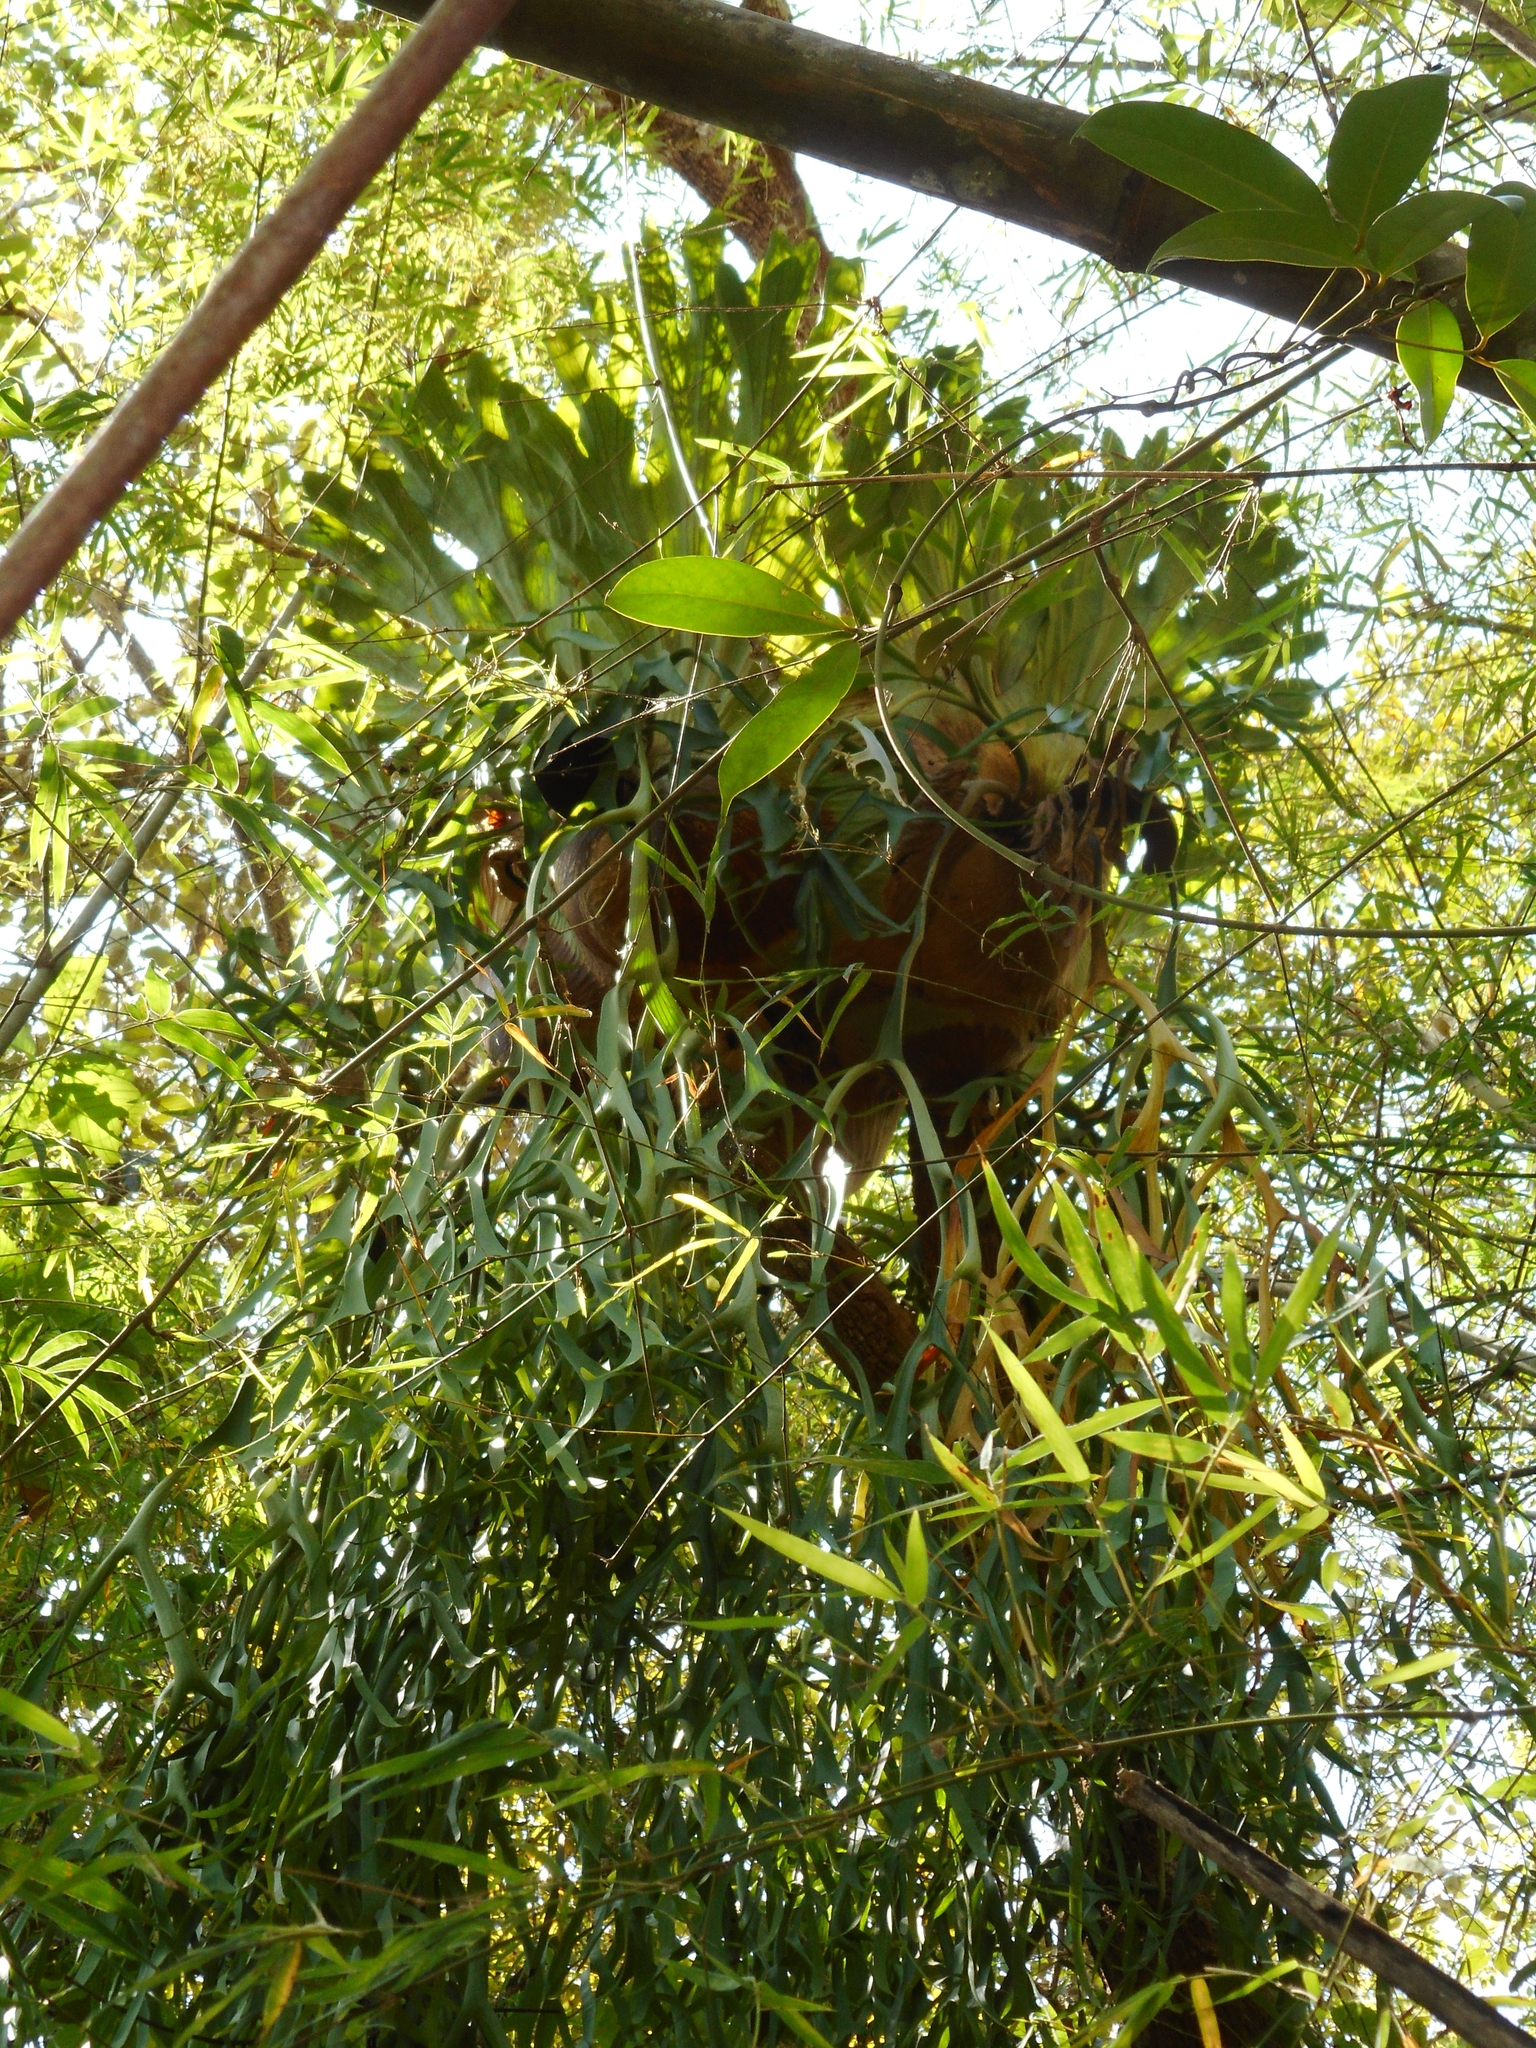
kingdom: Plantae
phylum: Tracheophyta
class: Polypodiopsida
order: Polypodiales
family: Polypodiaceae
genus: Platycerium
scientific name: Platycerium coronarium
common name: Elkhorn fern
